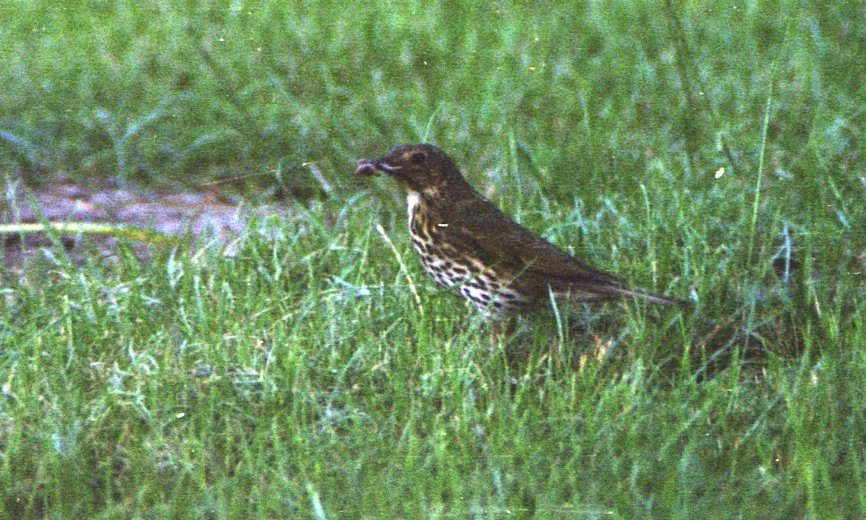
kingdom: Animalia
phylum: Chordata
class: Aves
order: Passeriformes
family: Turdidae
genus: Turdus
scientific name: Turdus philomelos
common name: Song thrush
